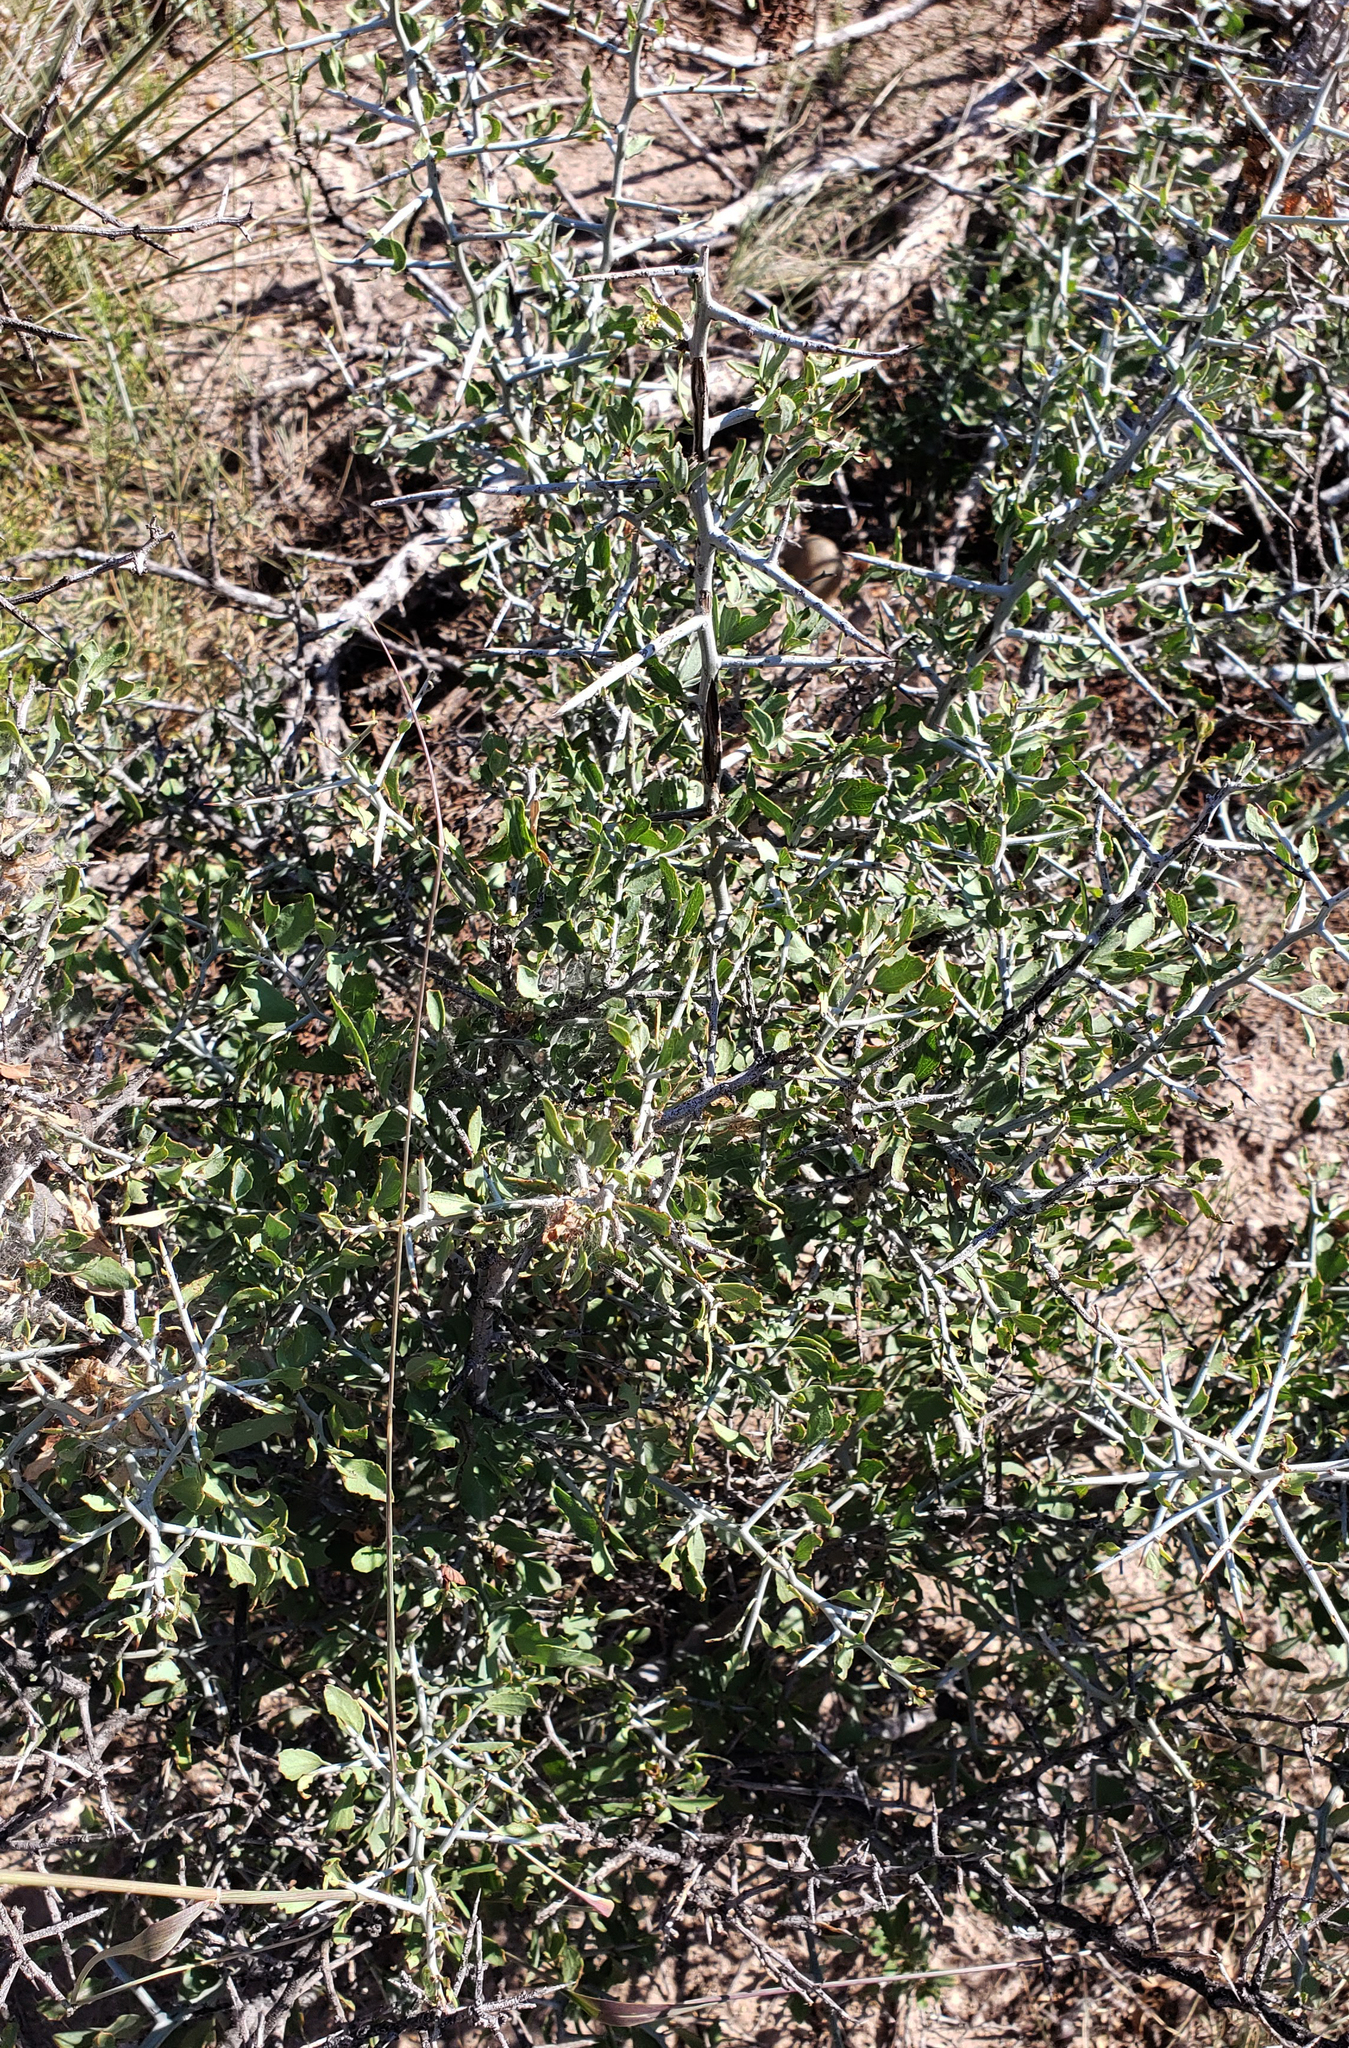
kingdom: Plantae
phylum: Tracheophyta
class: Magnoliopsida
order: Rosales
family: Rhamnaceae
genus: Sarcomphalus
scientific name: Sarcomphalus obtusifolius
